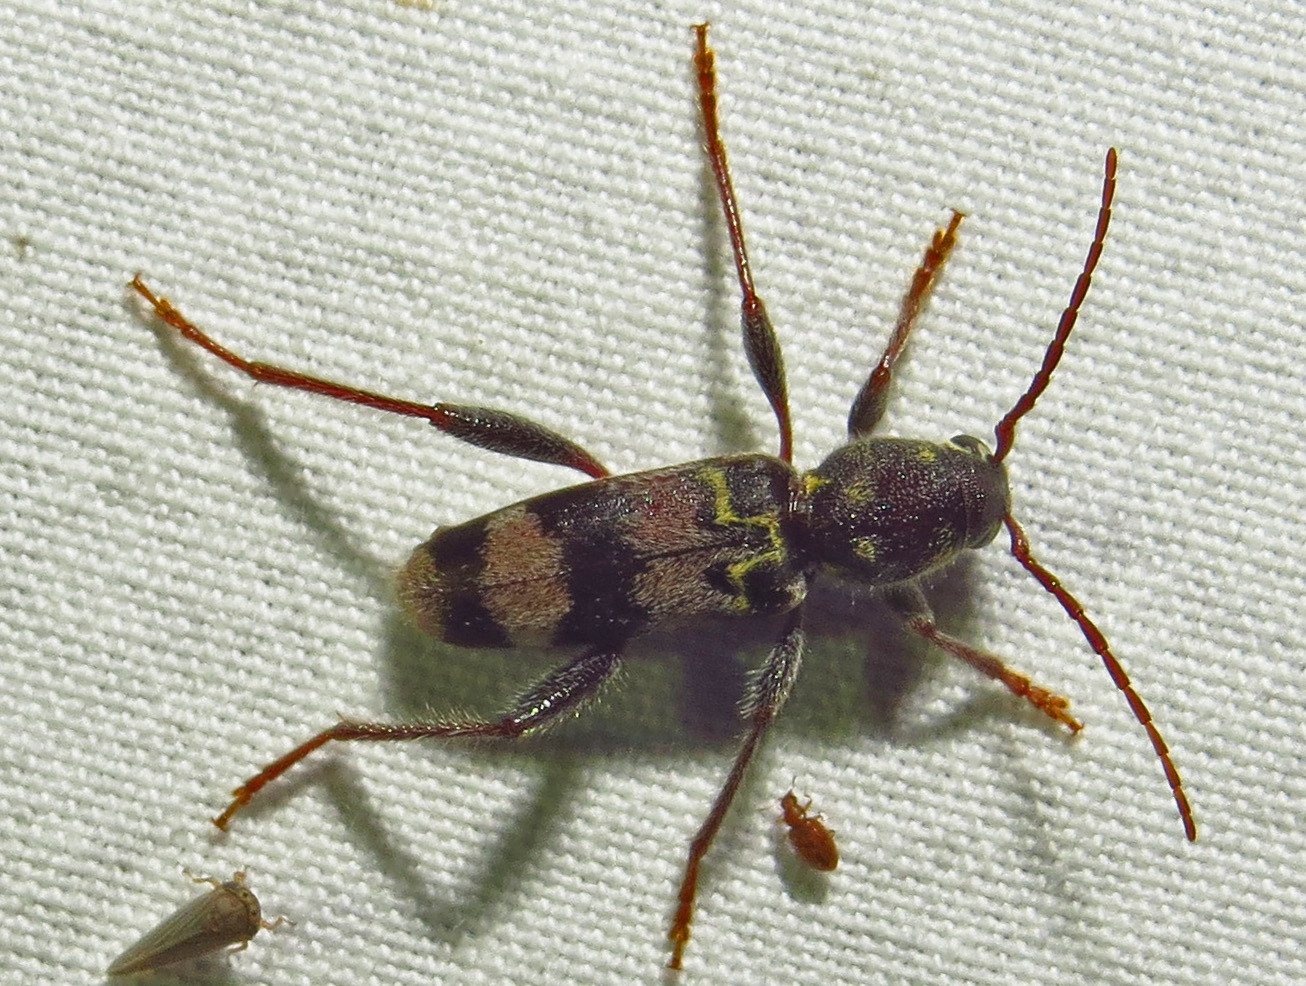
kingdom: Animalia
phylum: Arthropoda
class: Insecta
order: Coleoptera
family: Cerambycidae
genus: Xylotrechus
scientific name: Xylotrechus colonus
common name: Long-horned beetle
